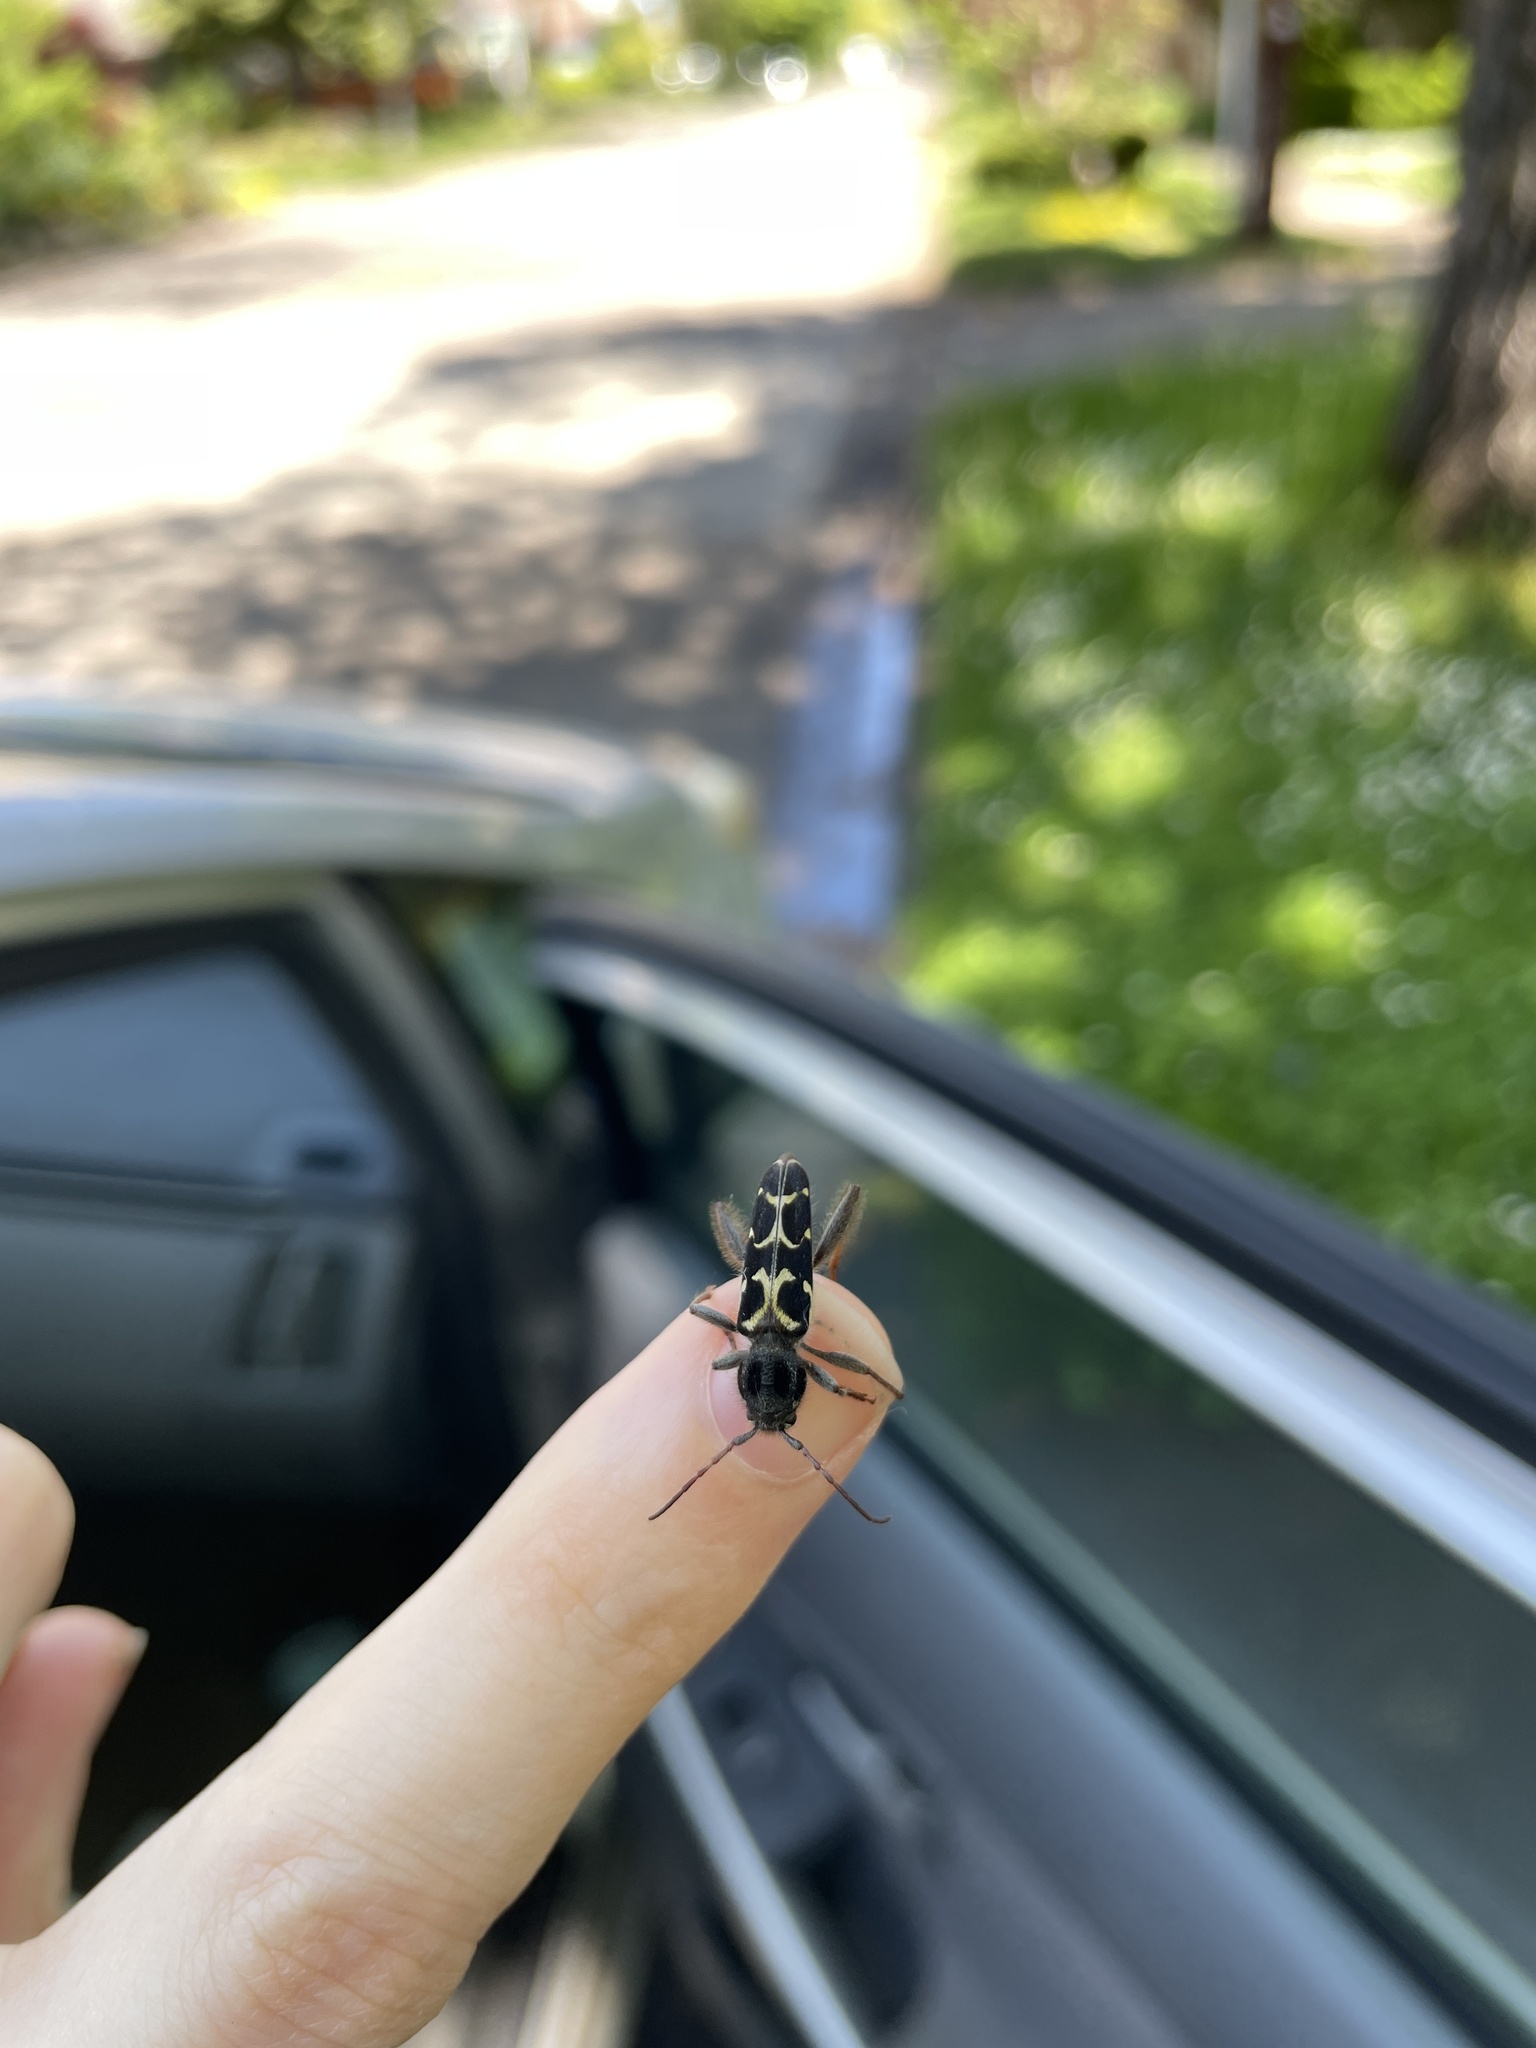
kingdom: Animalia
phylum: Arthropoda
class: Insecta
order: Coleoptera
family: Cerambycidae
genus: Neoclytus
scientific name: Neoclytus conjunctus
